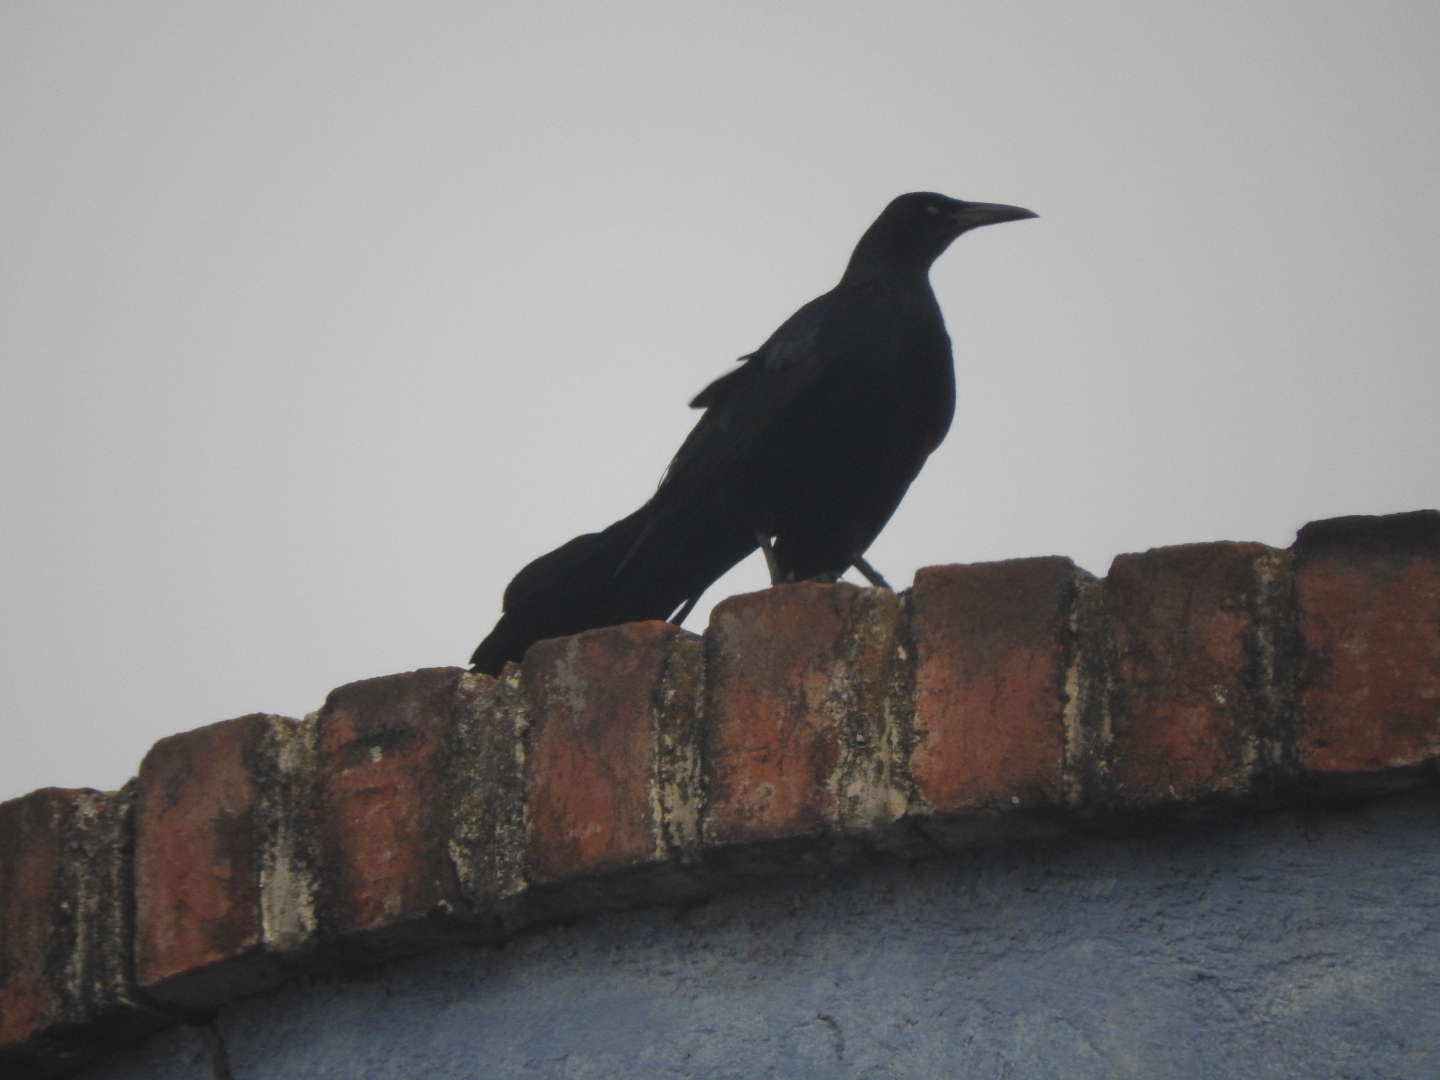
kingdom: Animalia
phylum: Chordata
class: Aves
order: Passeriformes
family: Icteridae
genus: Quiscalus
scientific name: Quiscalus mexicanus
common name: Great-tailed grackle
